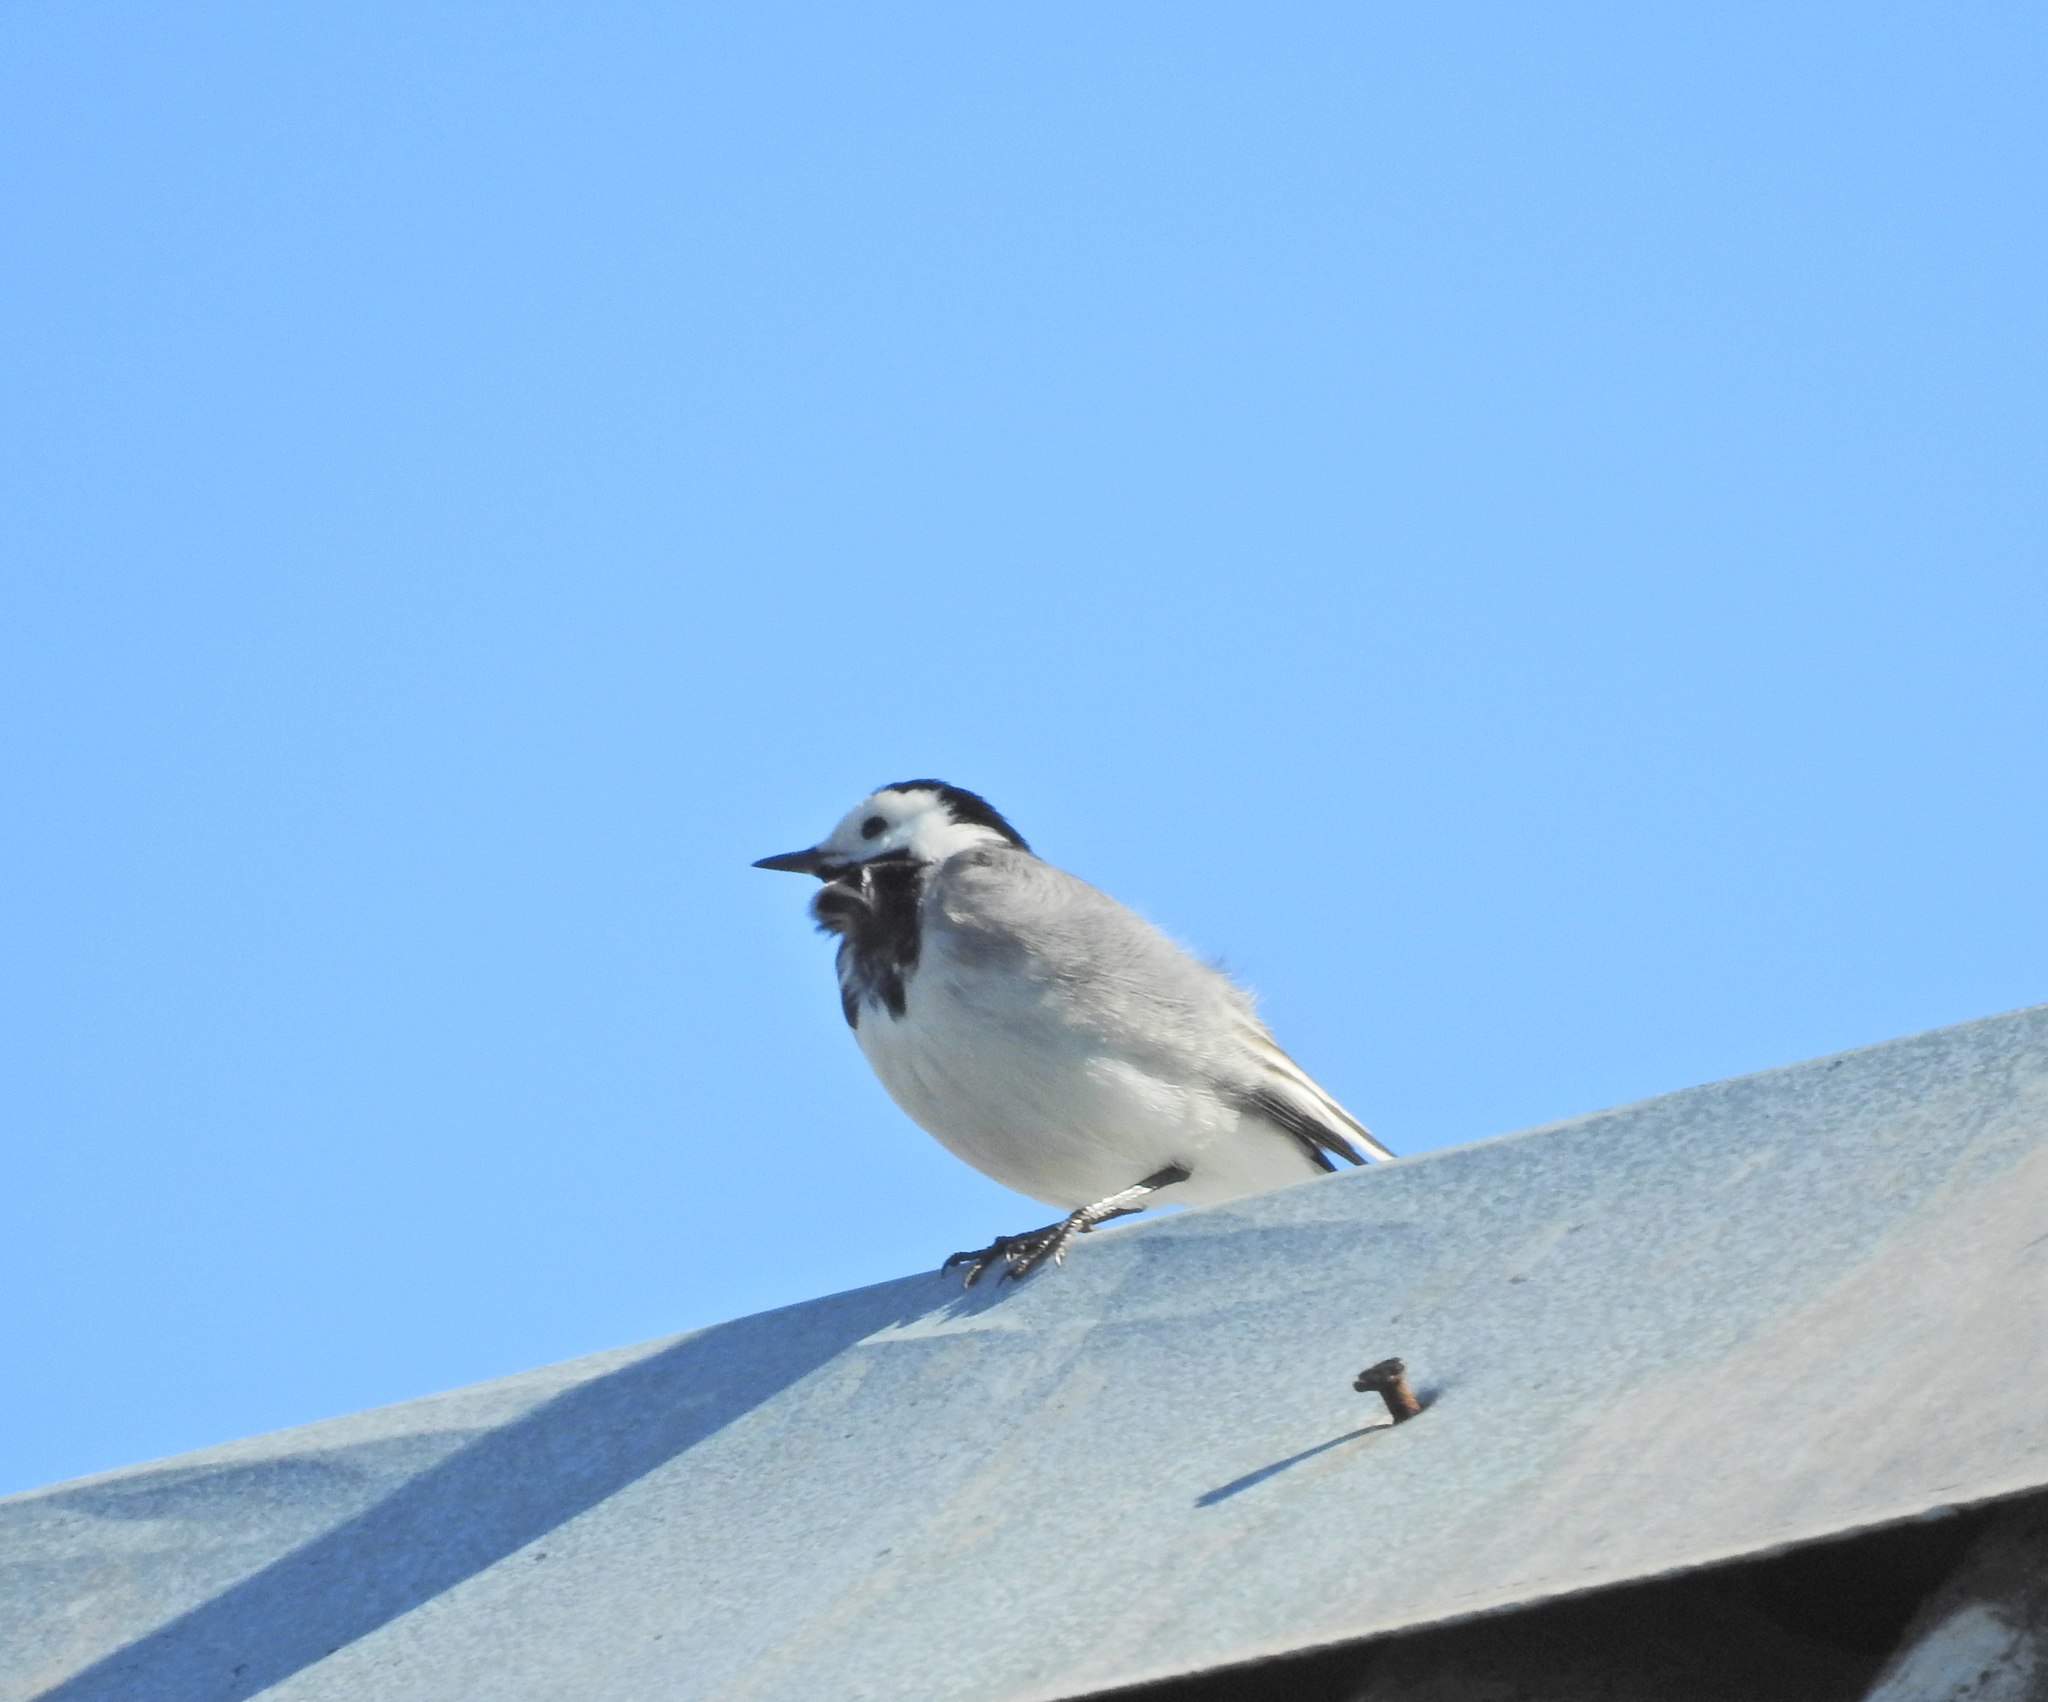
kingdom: Animalia
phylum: Chordata
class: Aves
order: Passeriformes
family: Motacillidae
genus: Motacilla
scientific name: Motacilla alba
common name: White wagtail
